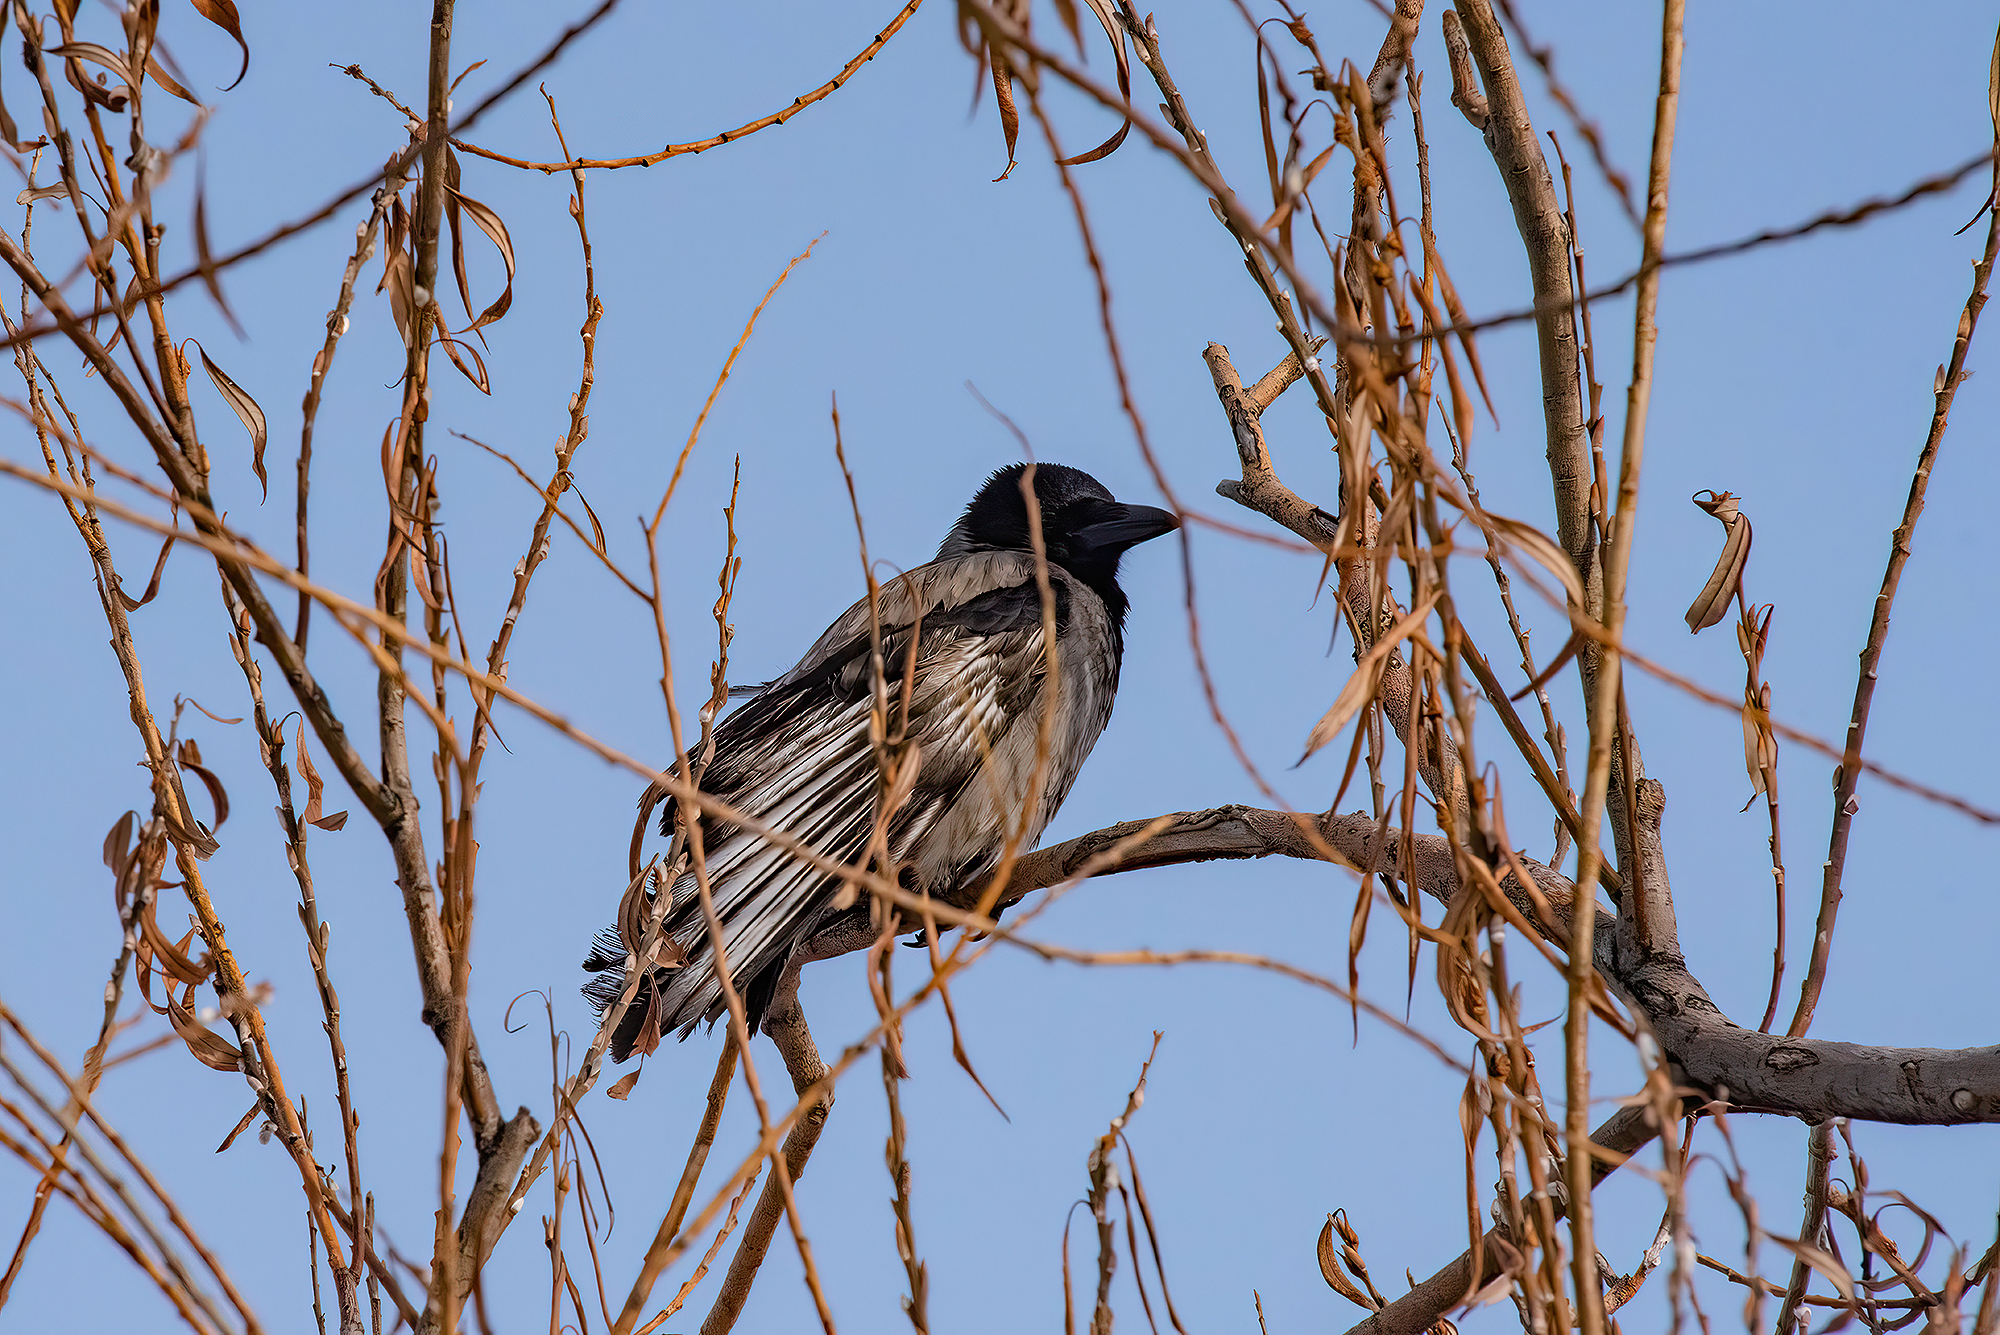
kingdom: Animalia
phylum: Chordata
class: Aves
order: Passeriformes
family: Corvidae
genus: Corvus
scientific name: Corvus cornix
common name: Hooded crow
